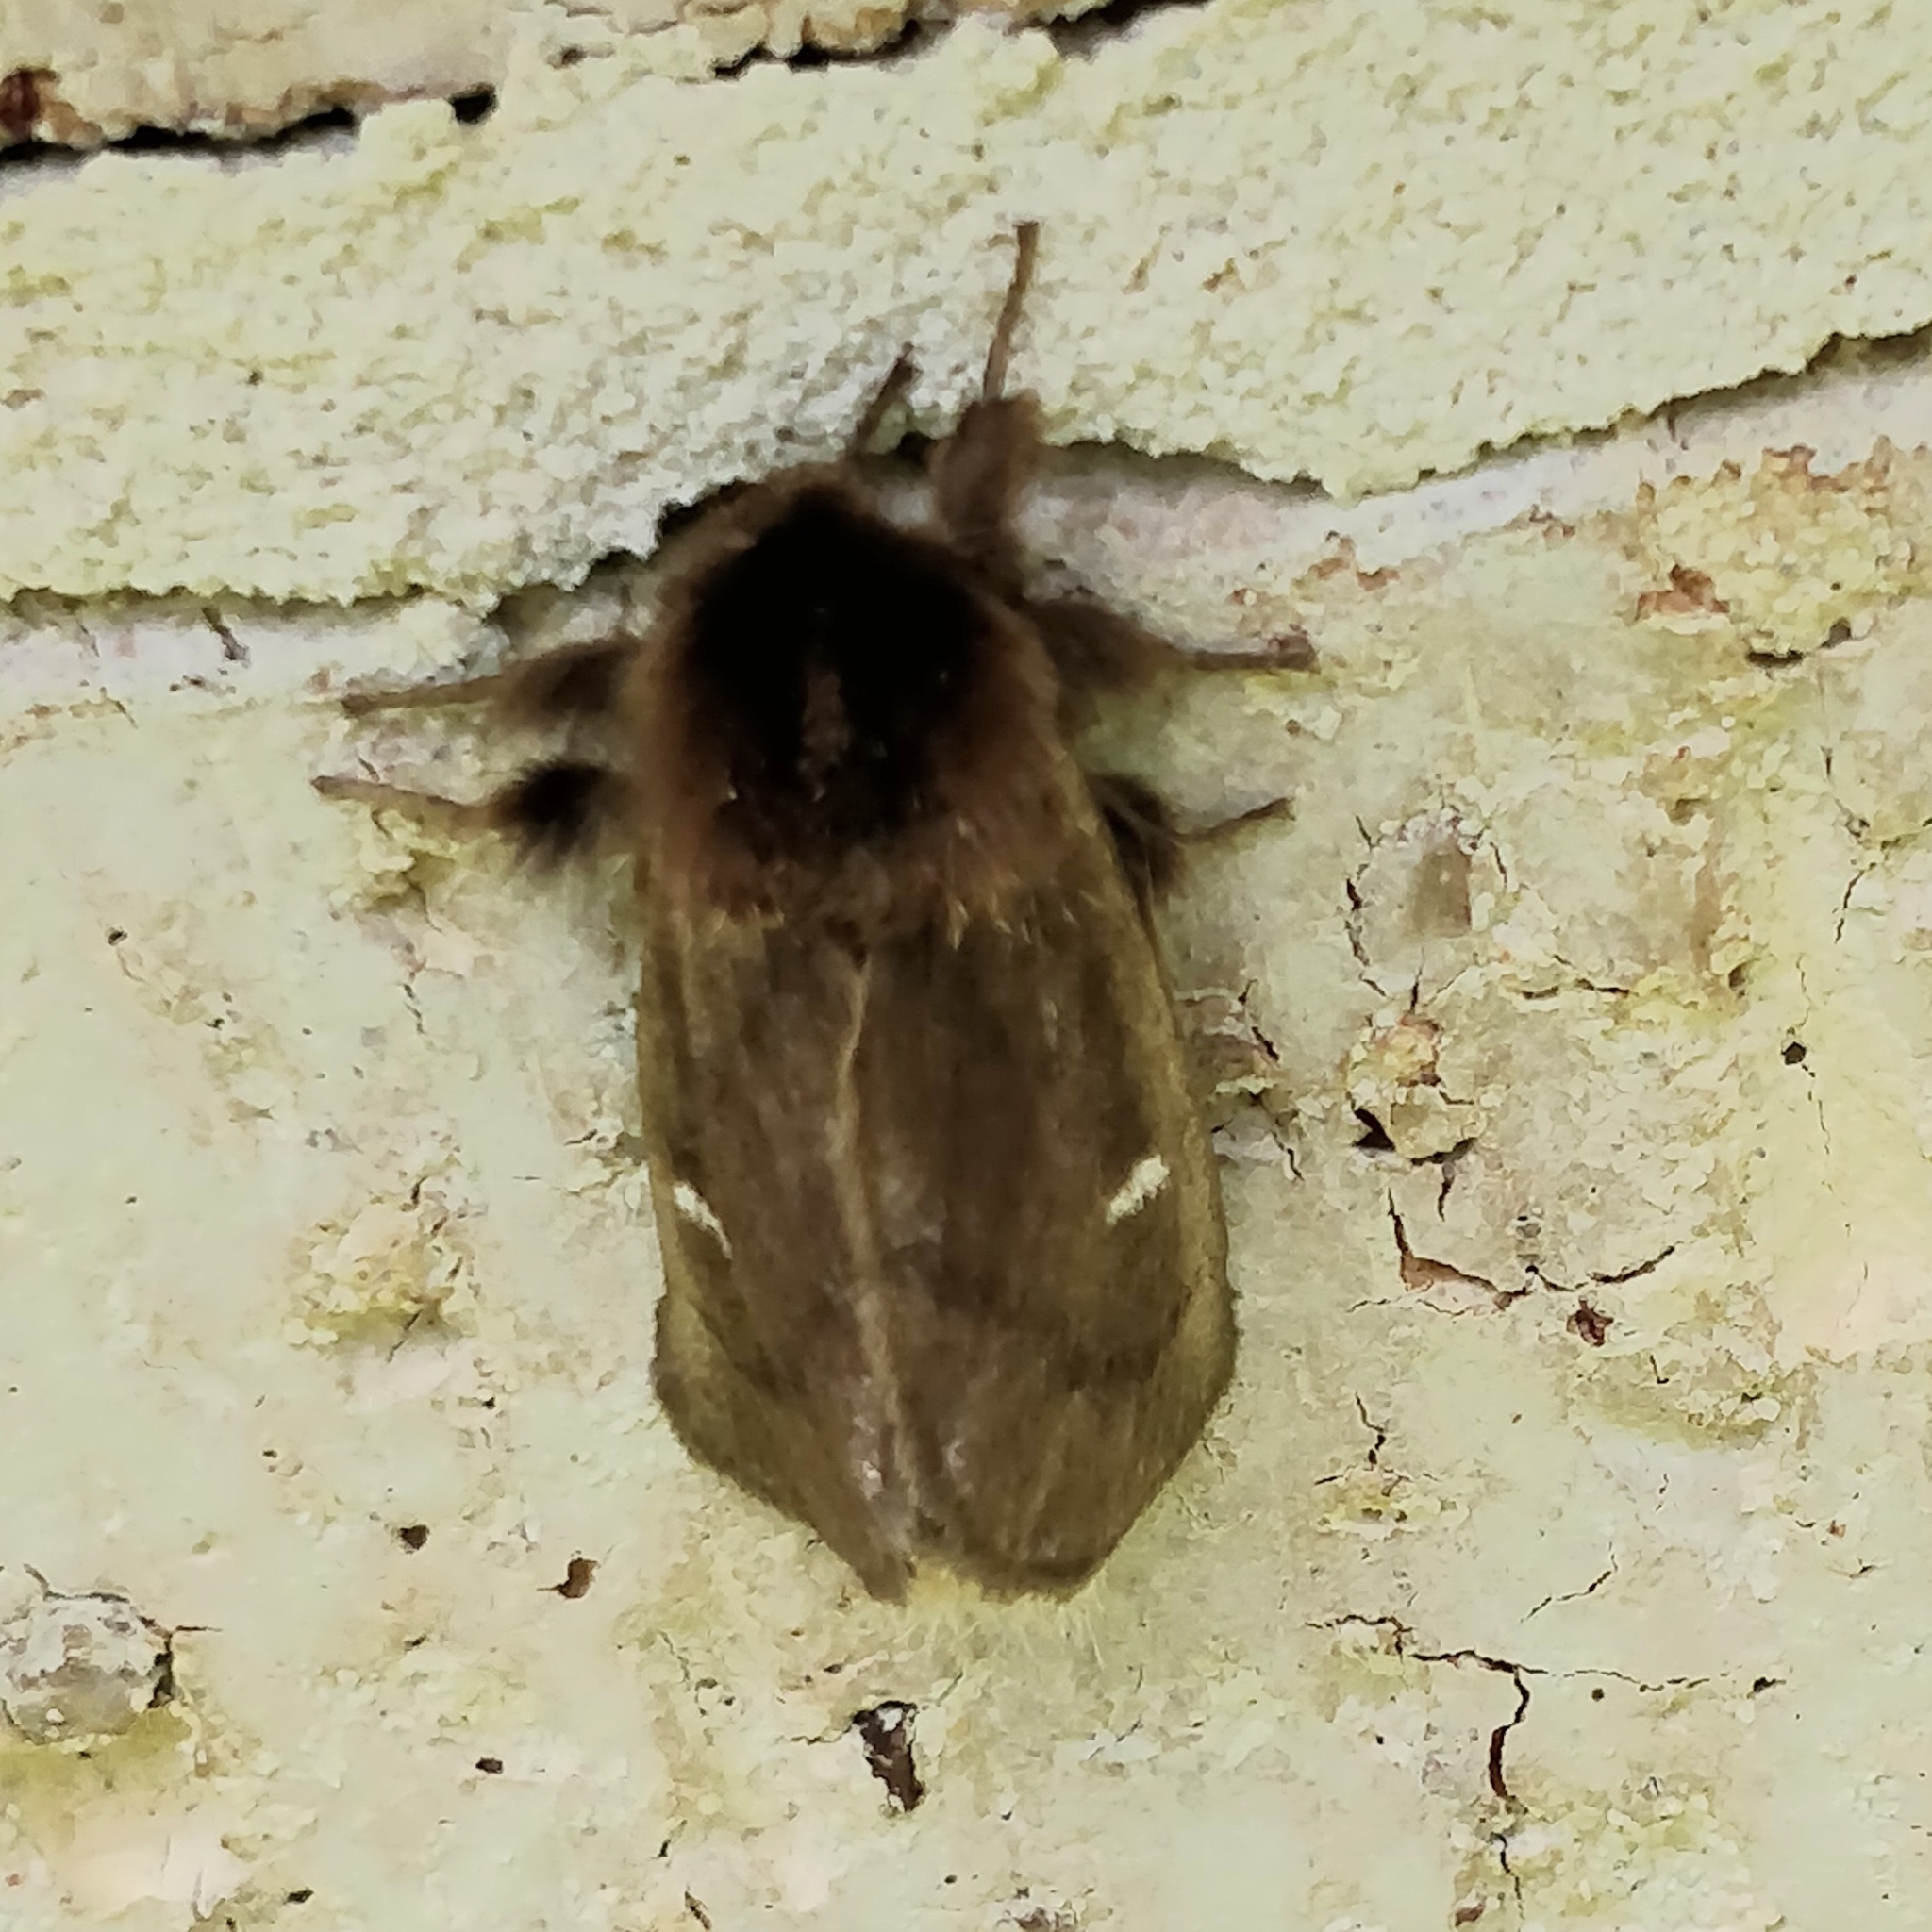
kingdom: Animalia
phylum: Arthropoda
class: Insecta
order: Lepidoptera
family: Notodontidae
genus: Ochrogaster
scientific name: Ochrogaster lunifer
